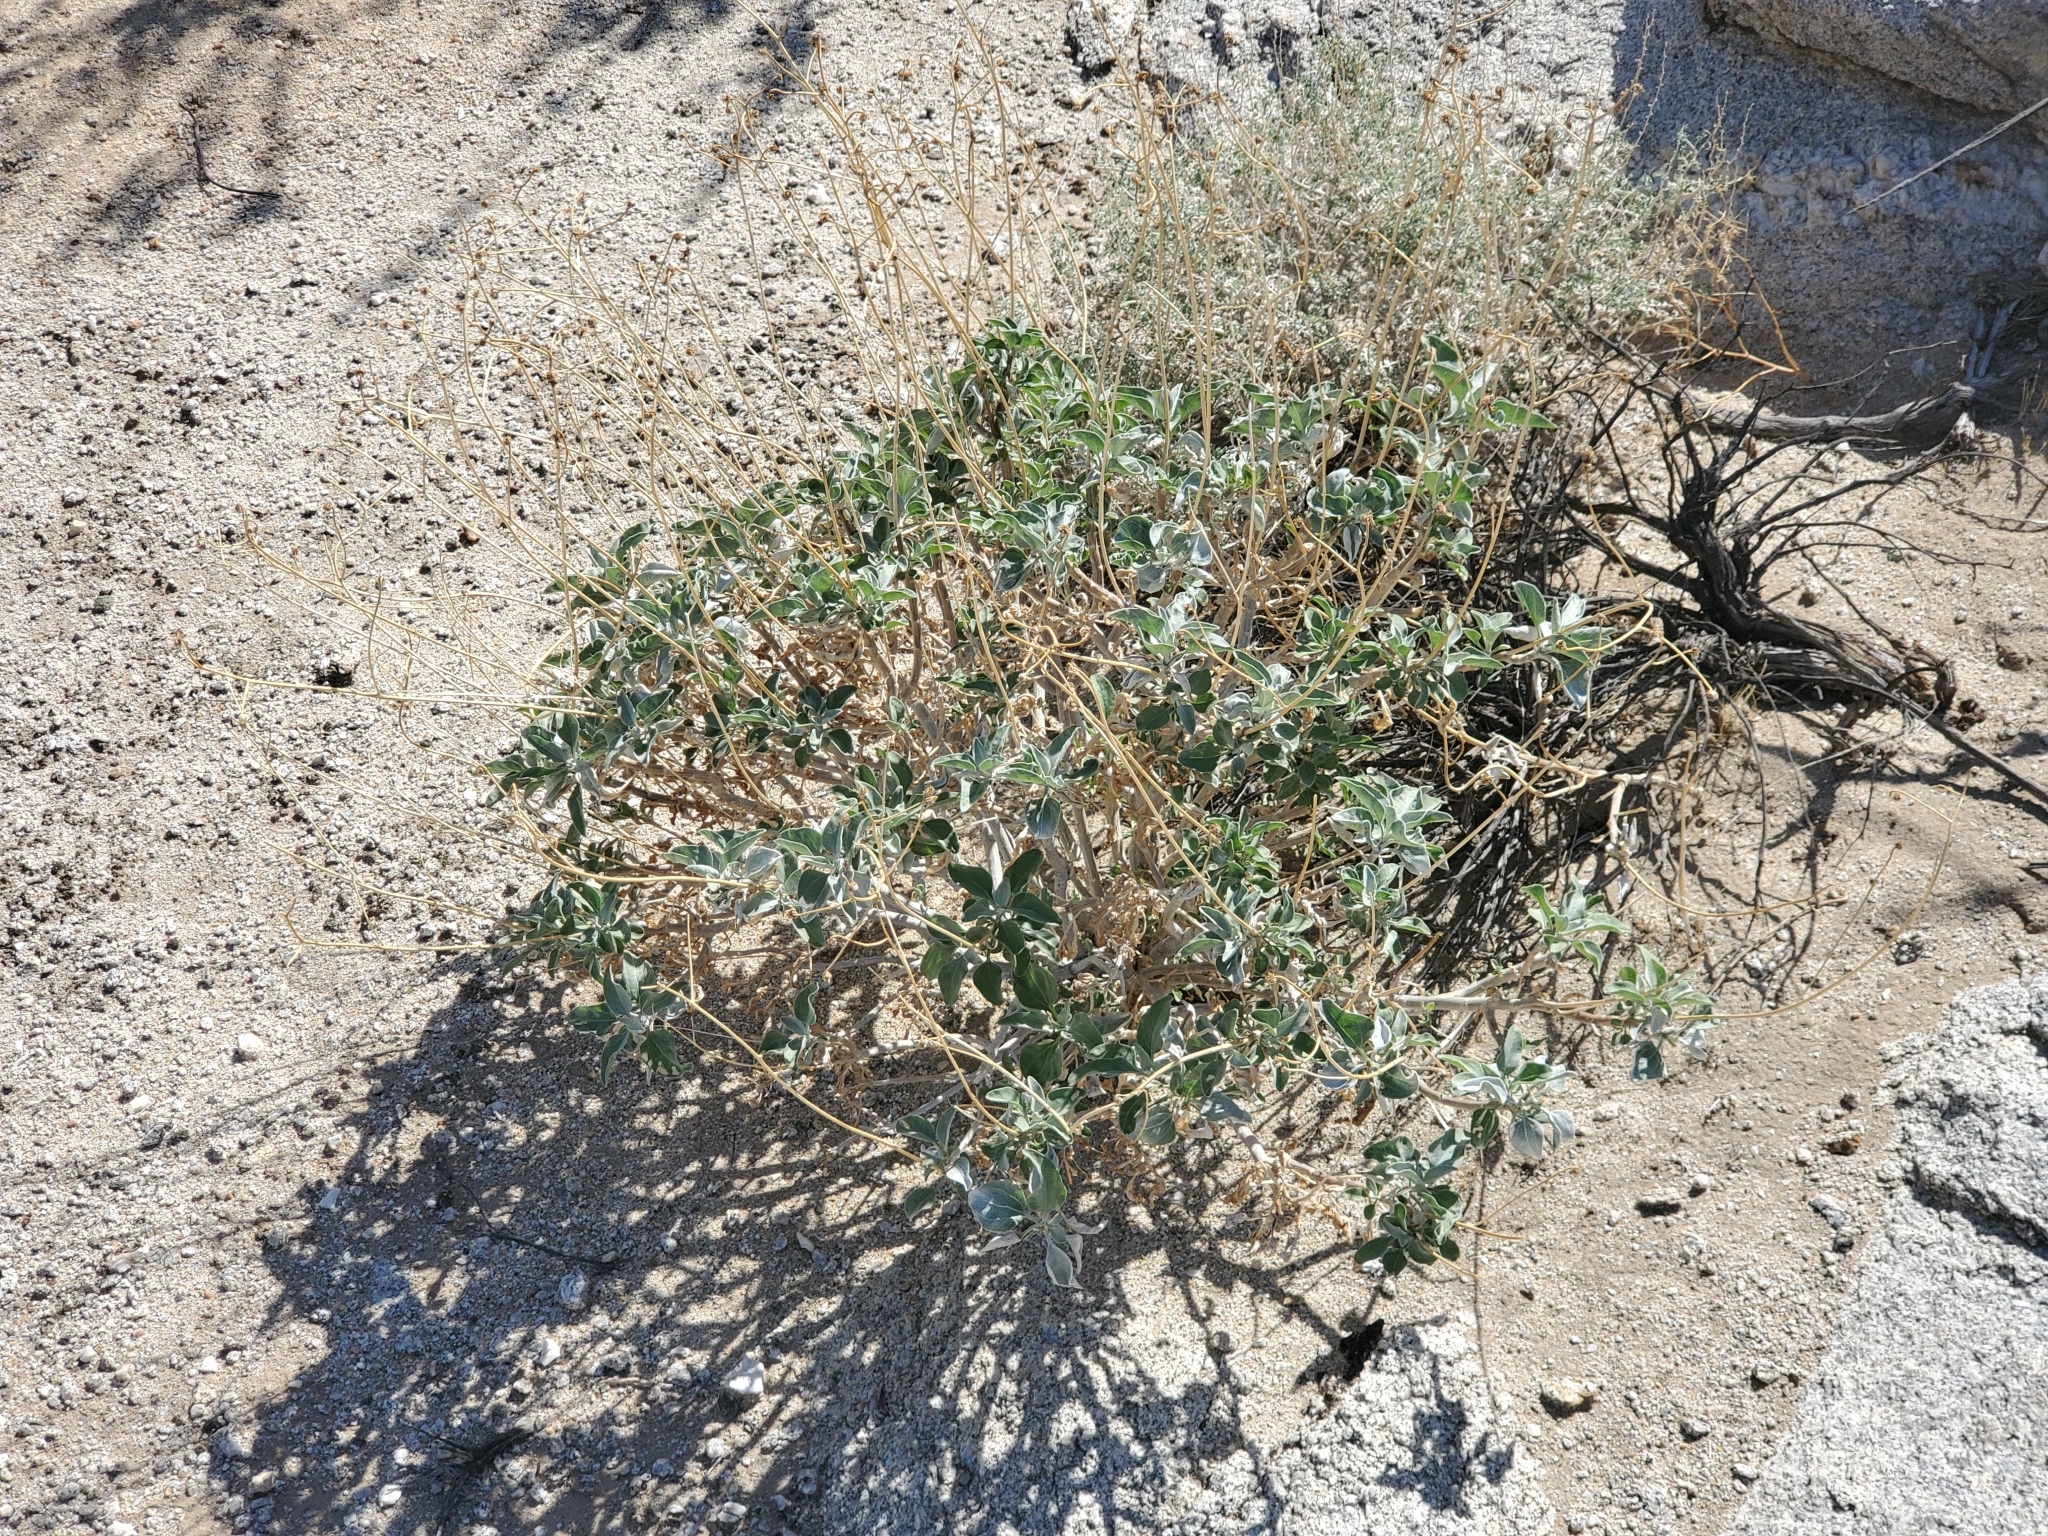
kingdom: Plantae
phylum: Tracheophyta
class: Magnoliopsida
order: Asterales
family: Asteraceae
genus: Encelia
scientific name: Encelia farinosa
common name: Brittlebush
